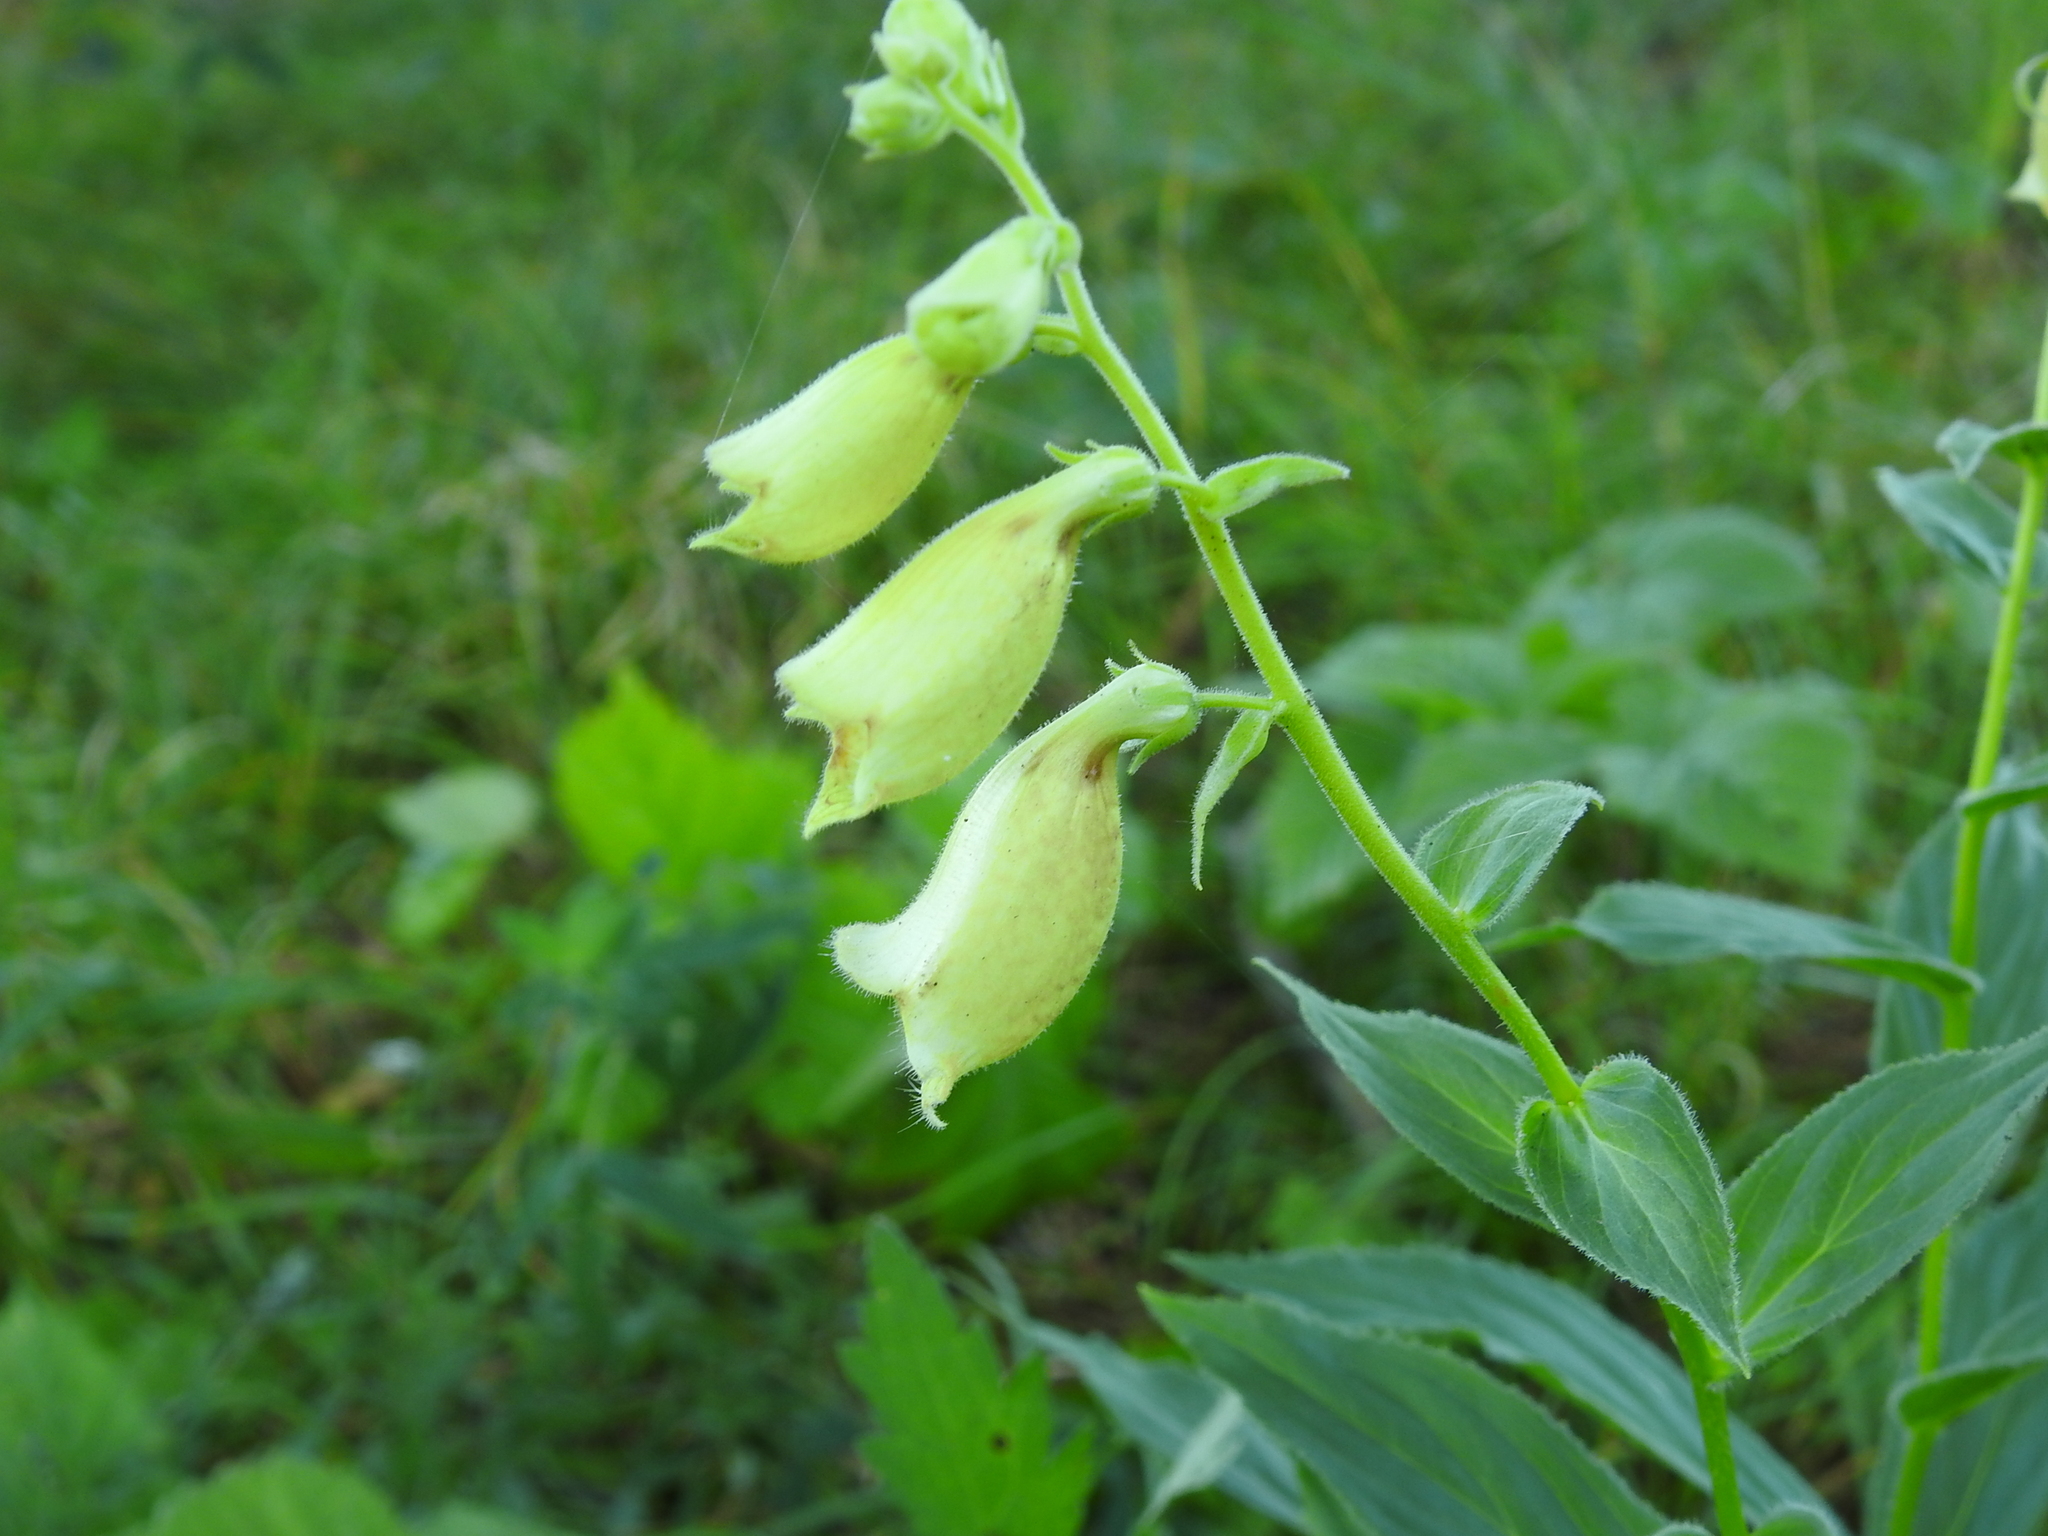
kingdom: Plantae
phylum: Tracheophyta
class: Magnoliopsida
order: Lamiales
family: Plantaginaceae
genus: Digitalis
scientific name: Digitalis grandiflora
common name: Yellow foxglove
